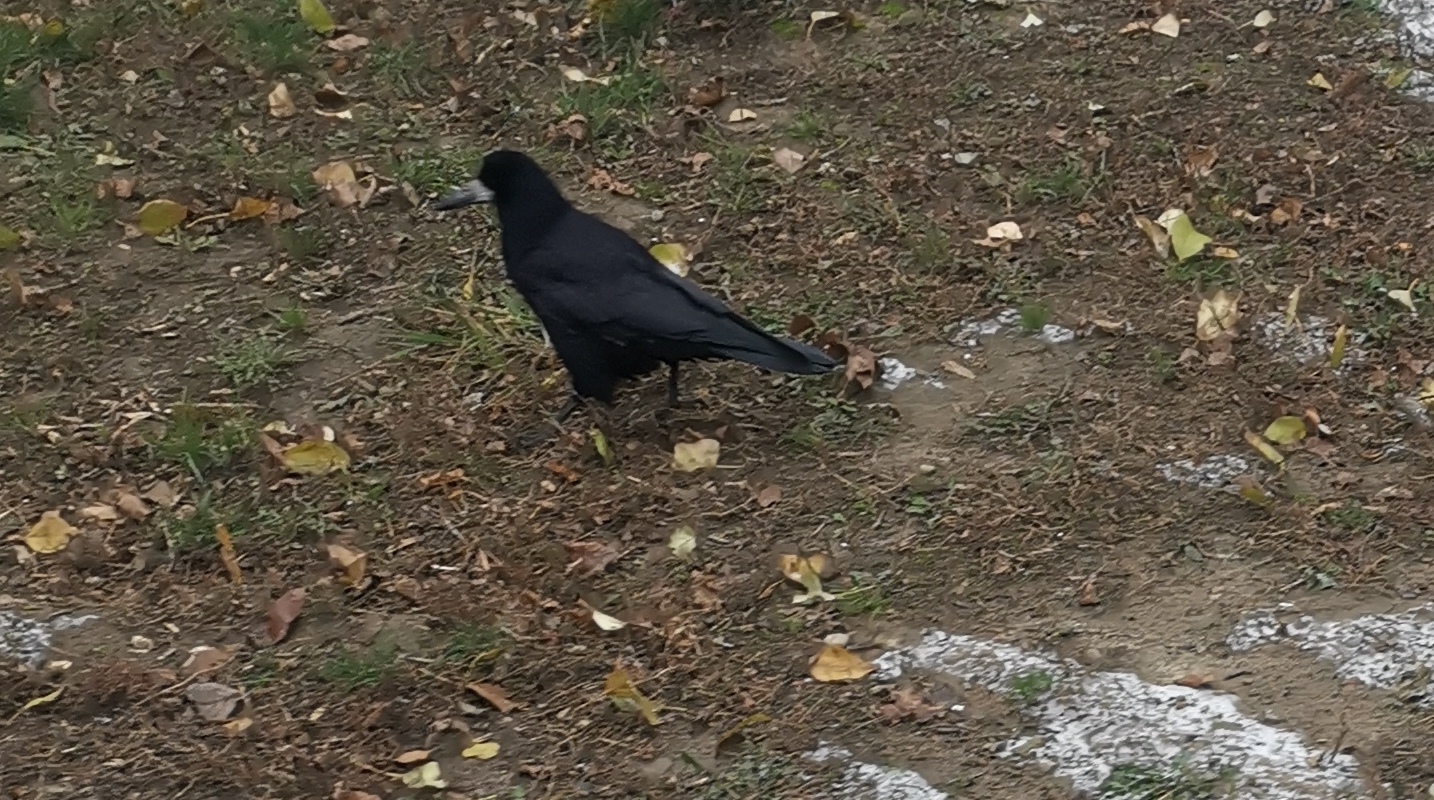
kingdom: Animalia
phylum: Chordata
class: Aves
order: Passeriformes
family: Corvidae
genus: Corvus
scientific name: Corvus frugilegus
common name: Rook
